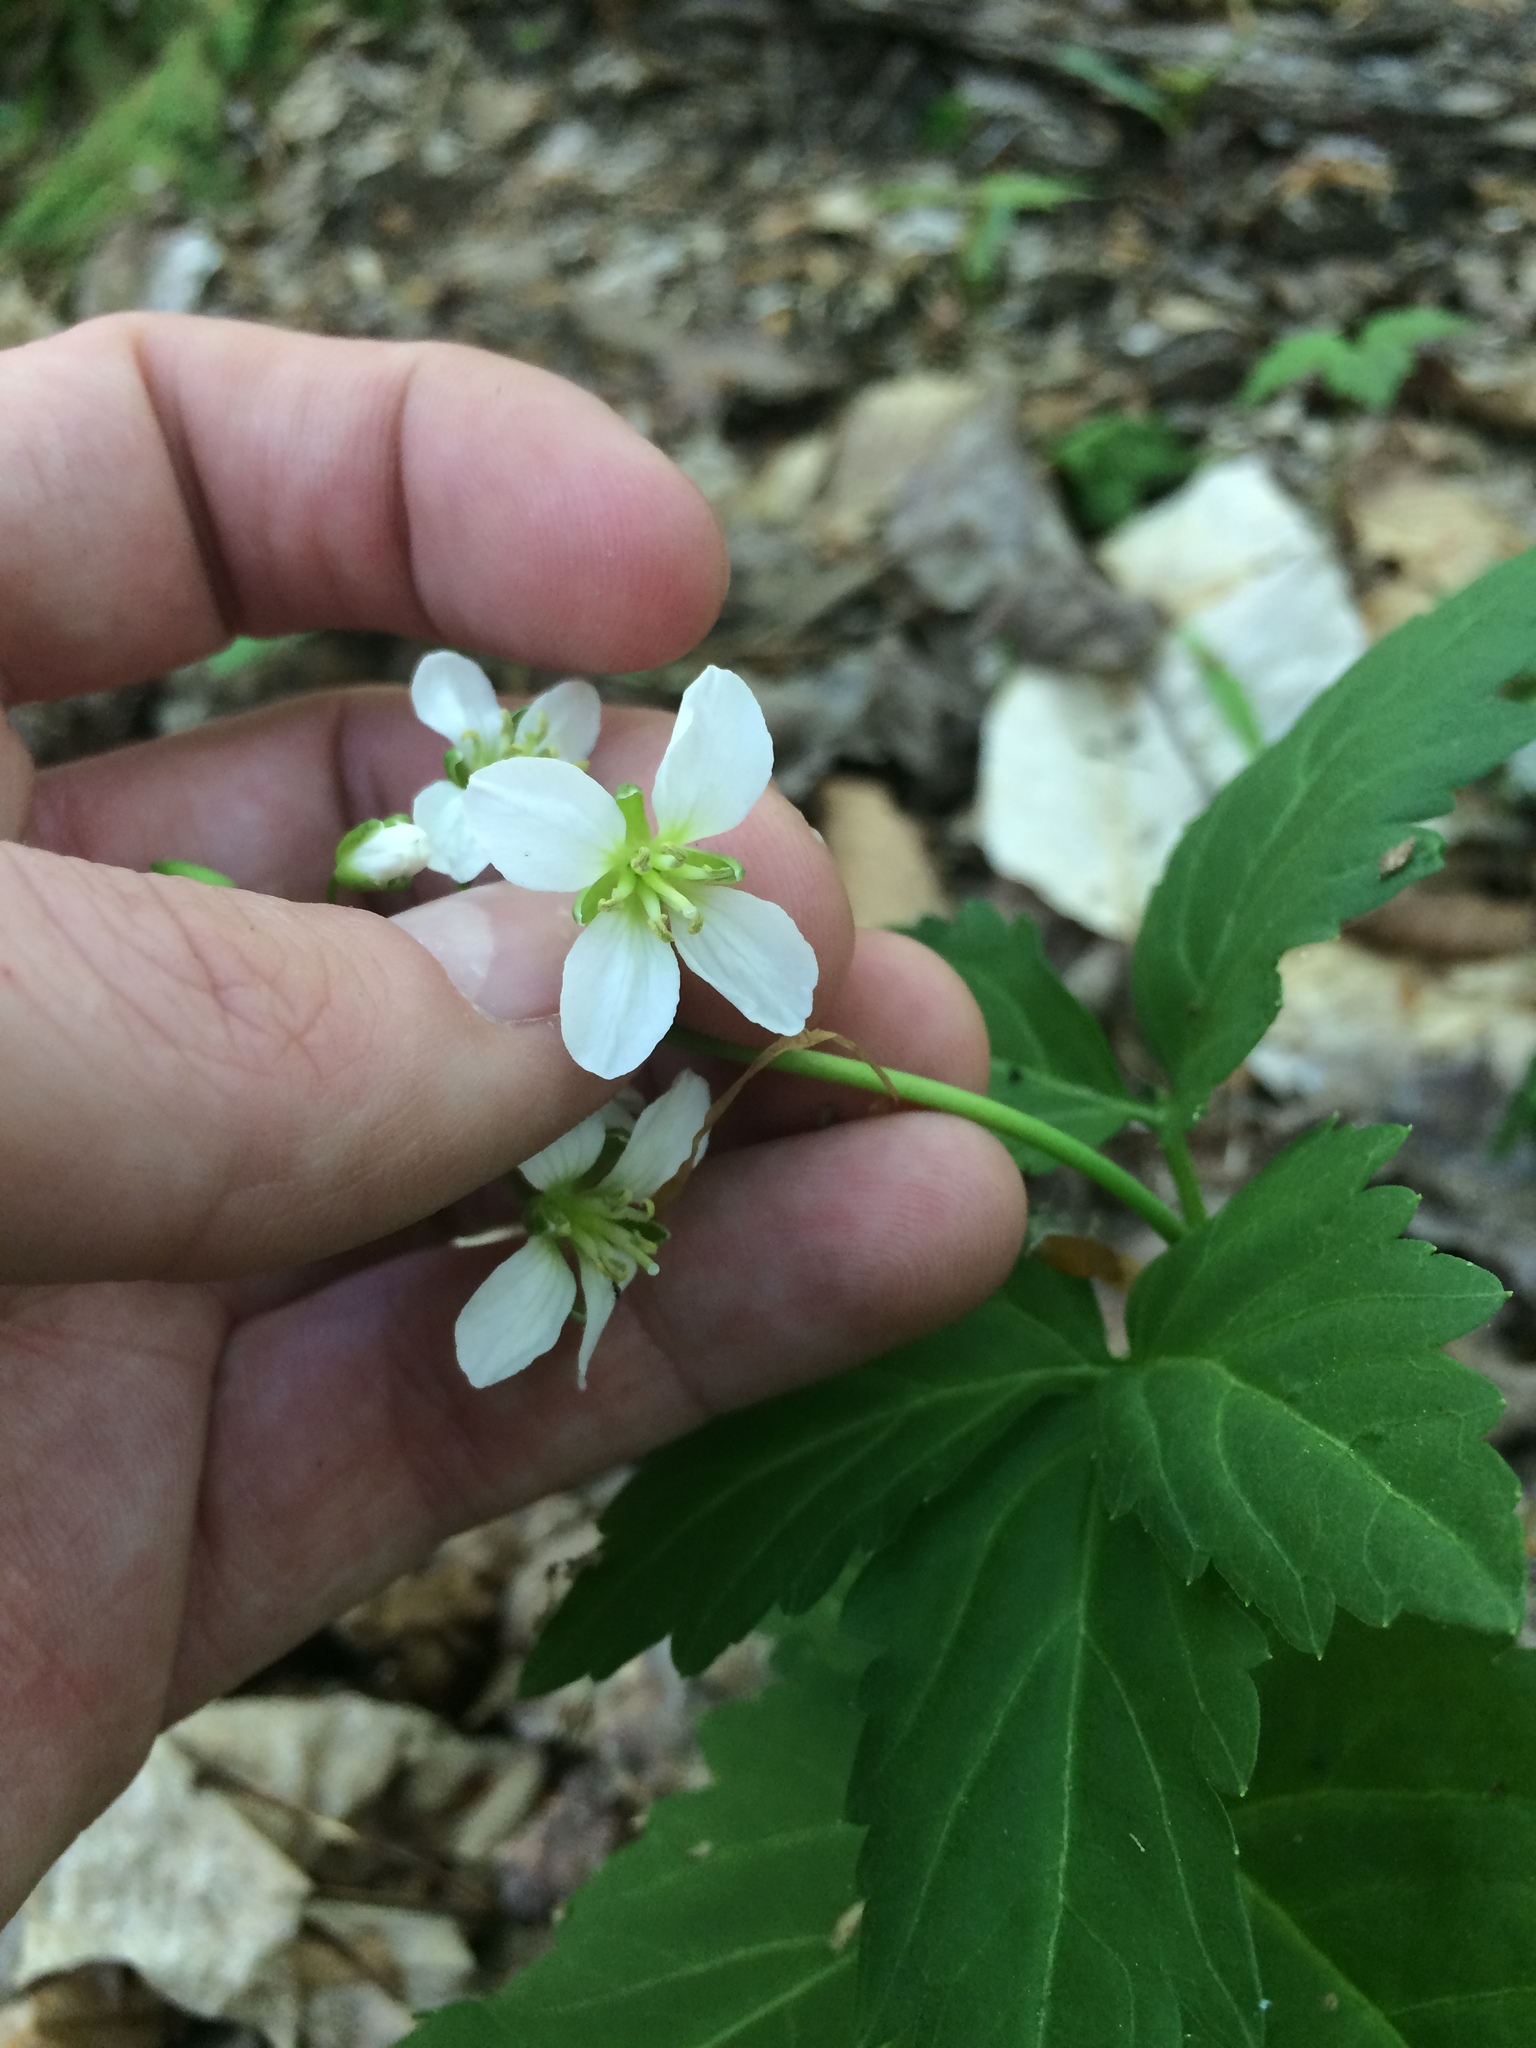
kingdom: Plantae
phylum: Tracheophyta
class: Magnoliopsida
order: Brassicales
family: Brassicaceae
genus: Cardamine
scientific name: Cardamine diphylla
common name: Broad-leaved toothwort
